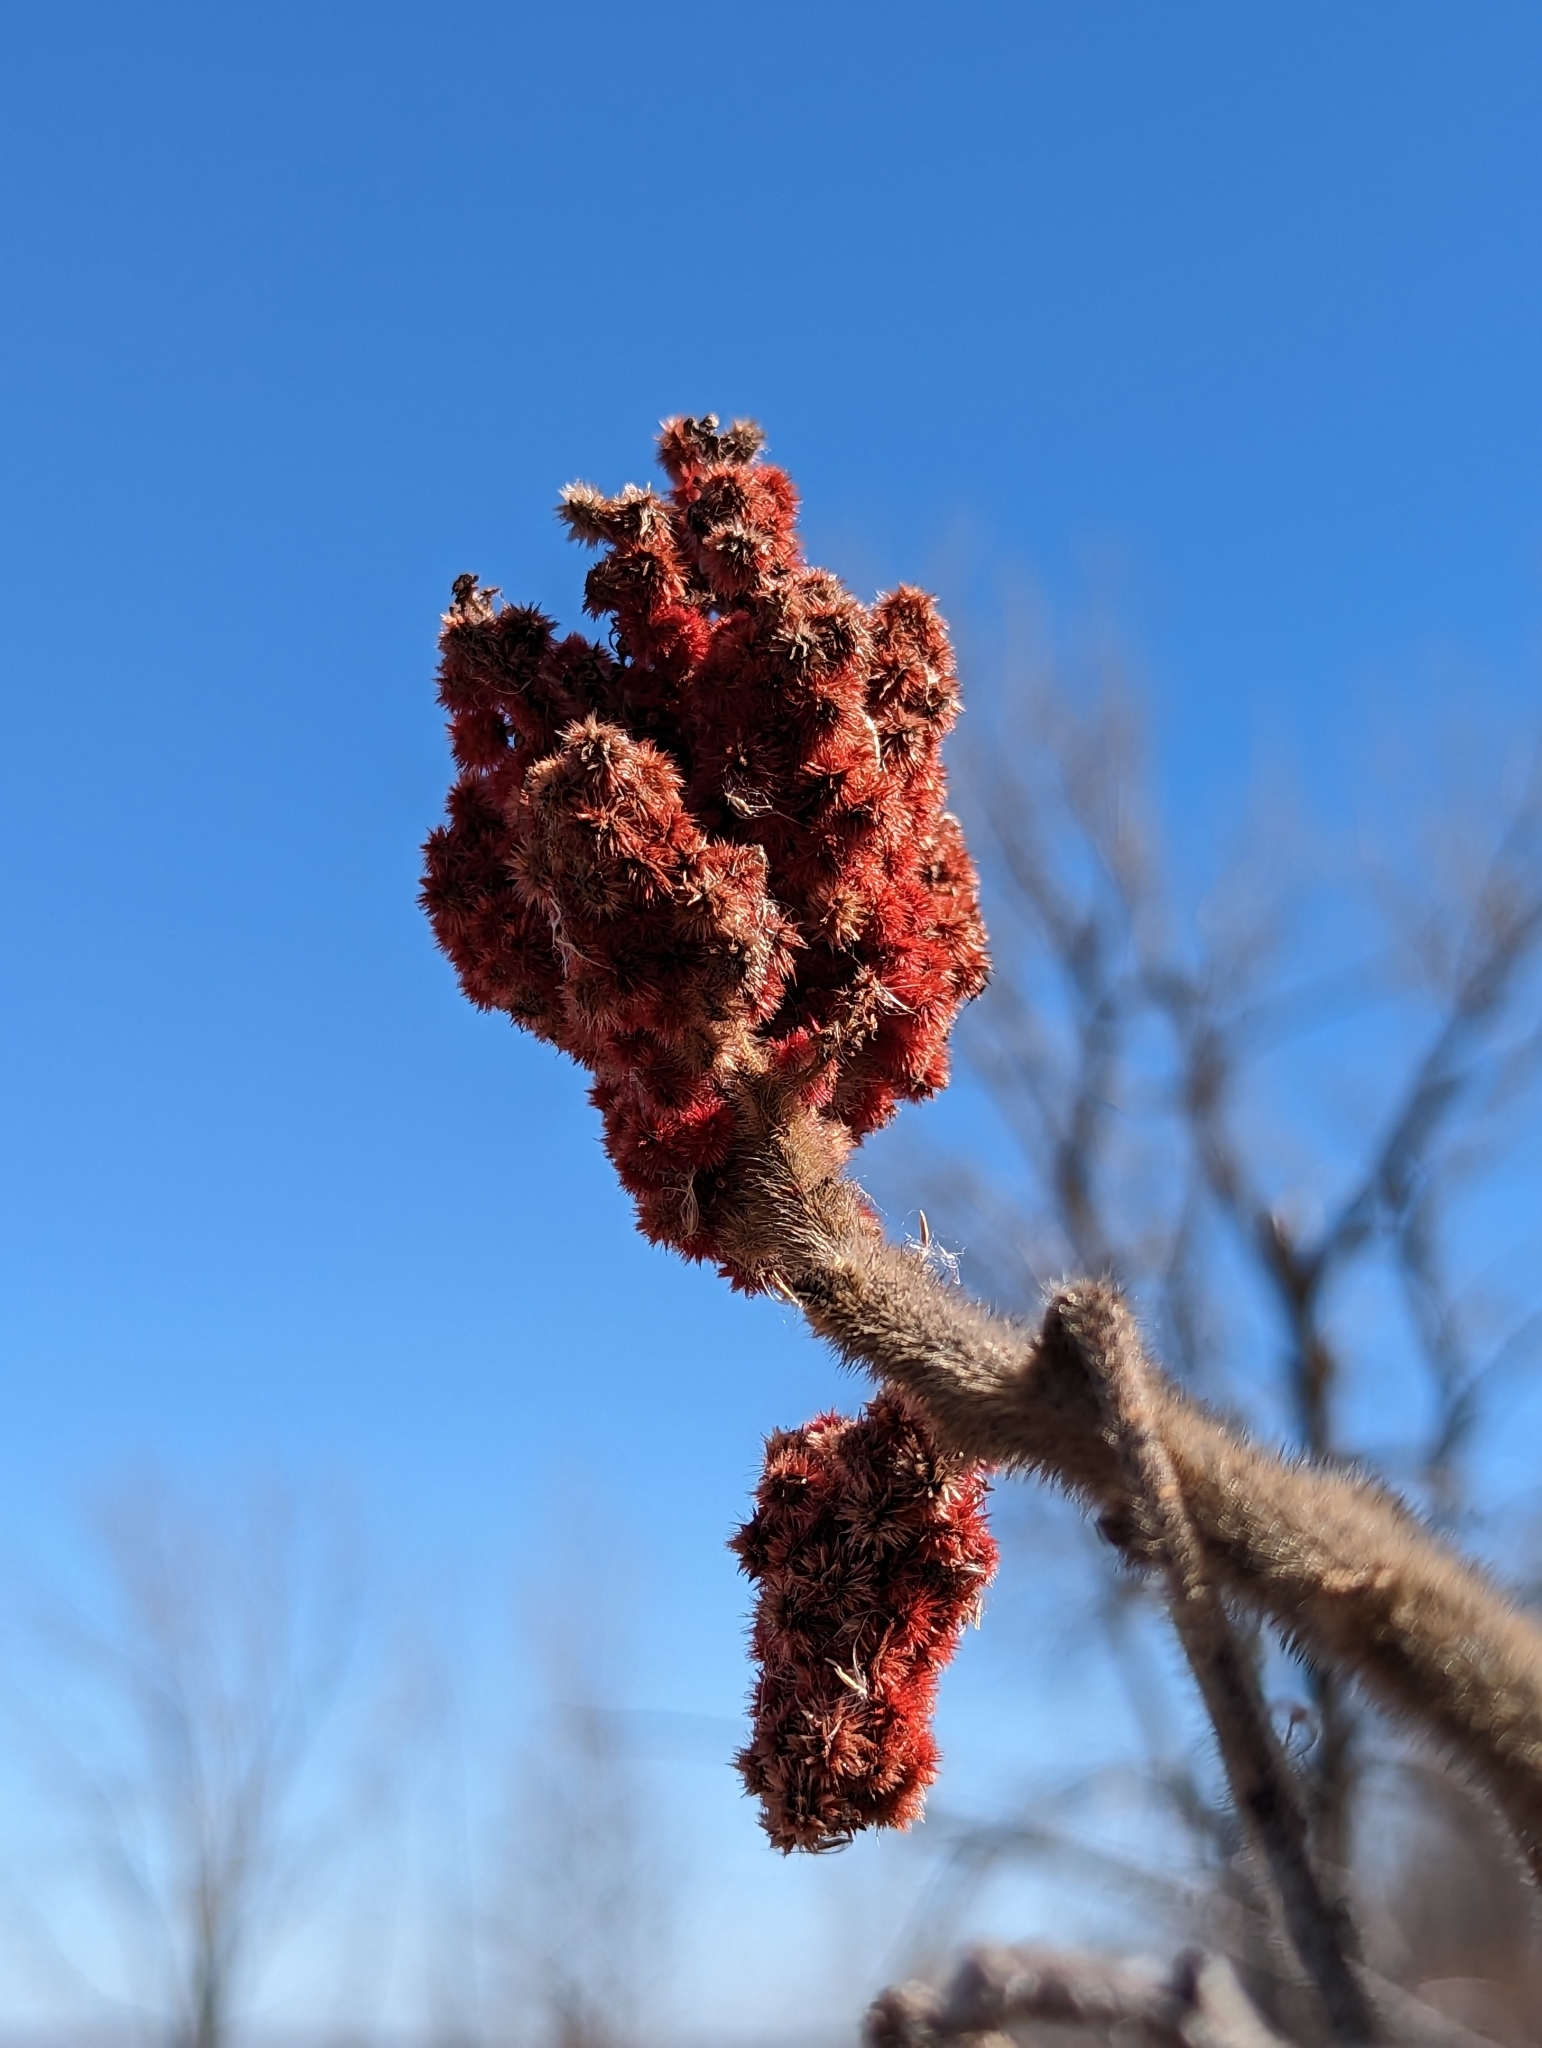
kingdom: Plantae
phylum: Tracheophyta
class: Magnoliopsida
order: Sapindales
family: Anacardiaceae
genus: Rhus
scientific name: Rhus typhina
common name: Staghorn sumac
